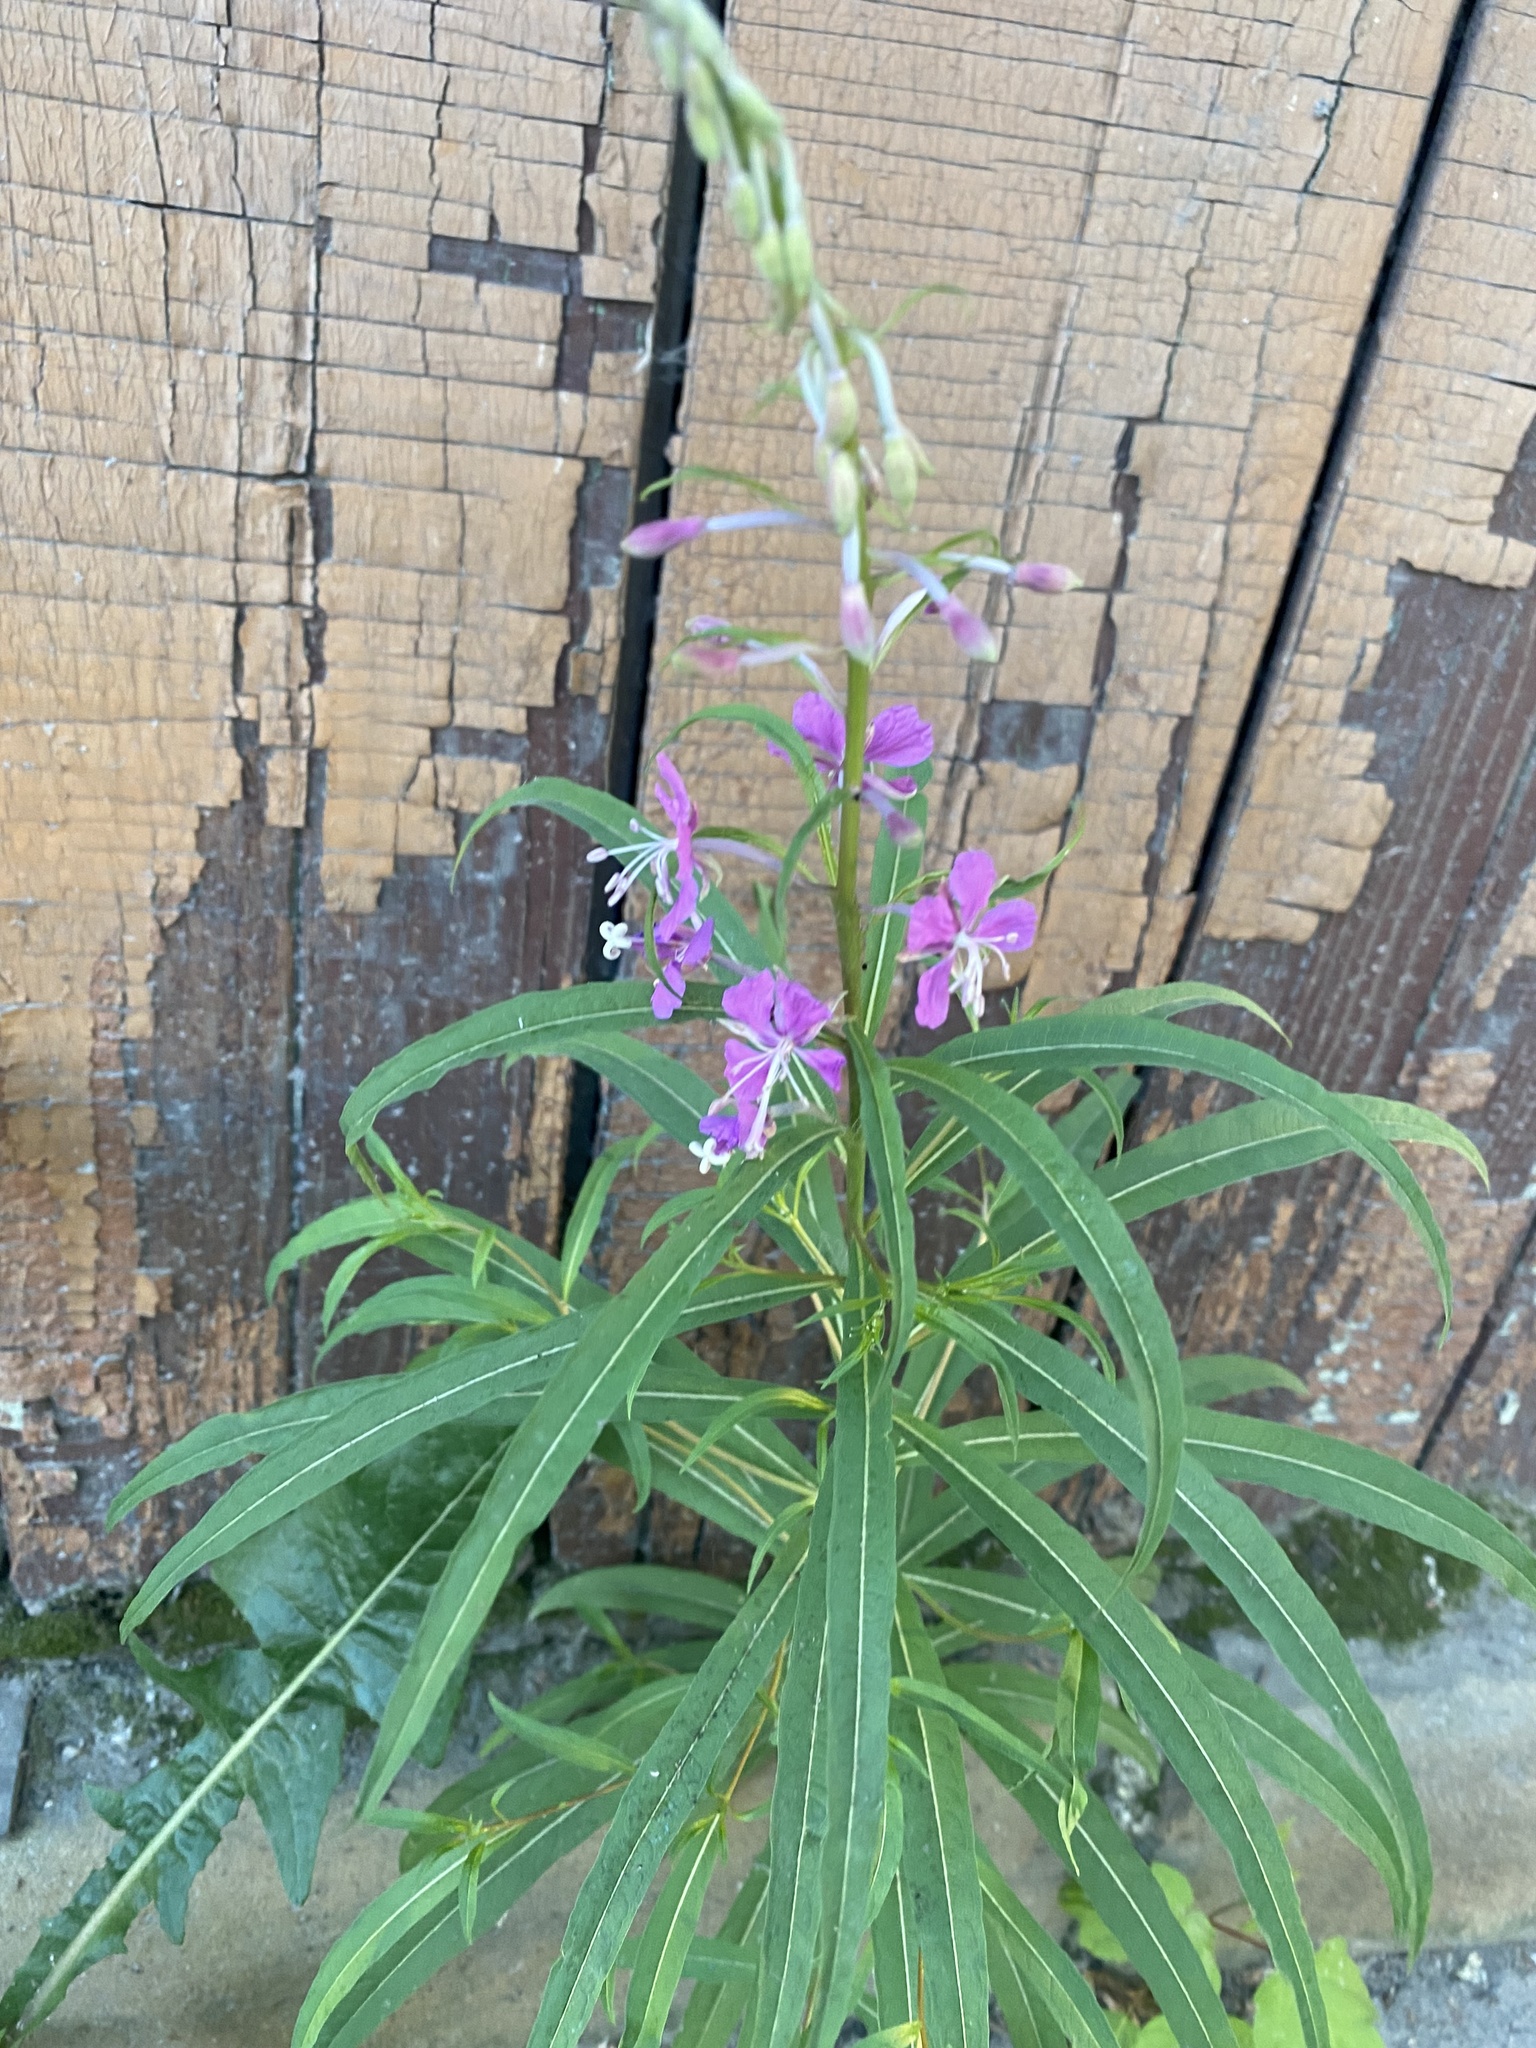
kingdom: Plantae
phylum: Tracheophyta
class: Magnoliopsida
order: Myrtales
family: Onagraceae
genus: Chamaenerion
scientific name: Chamaenerion angustifolium
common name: Fireweed
